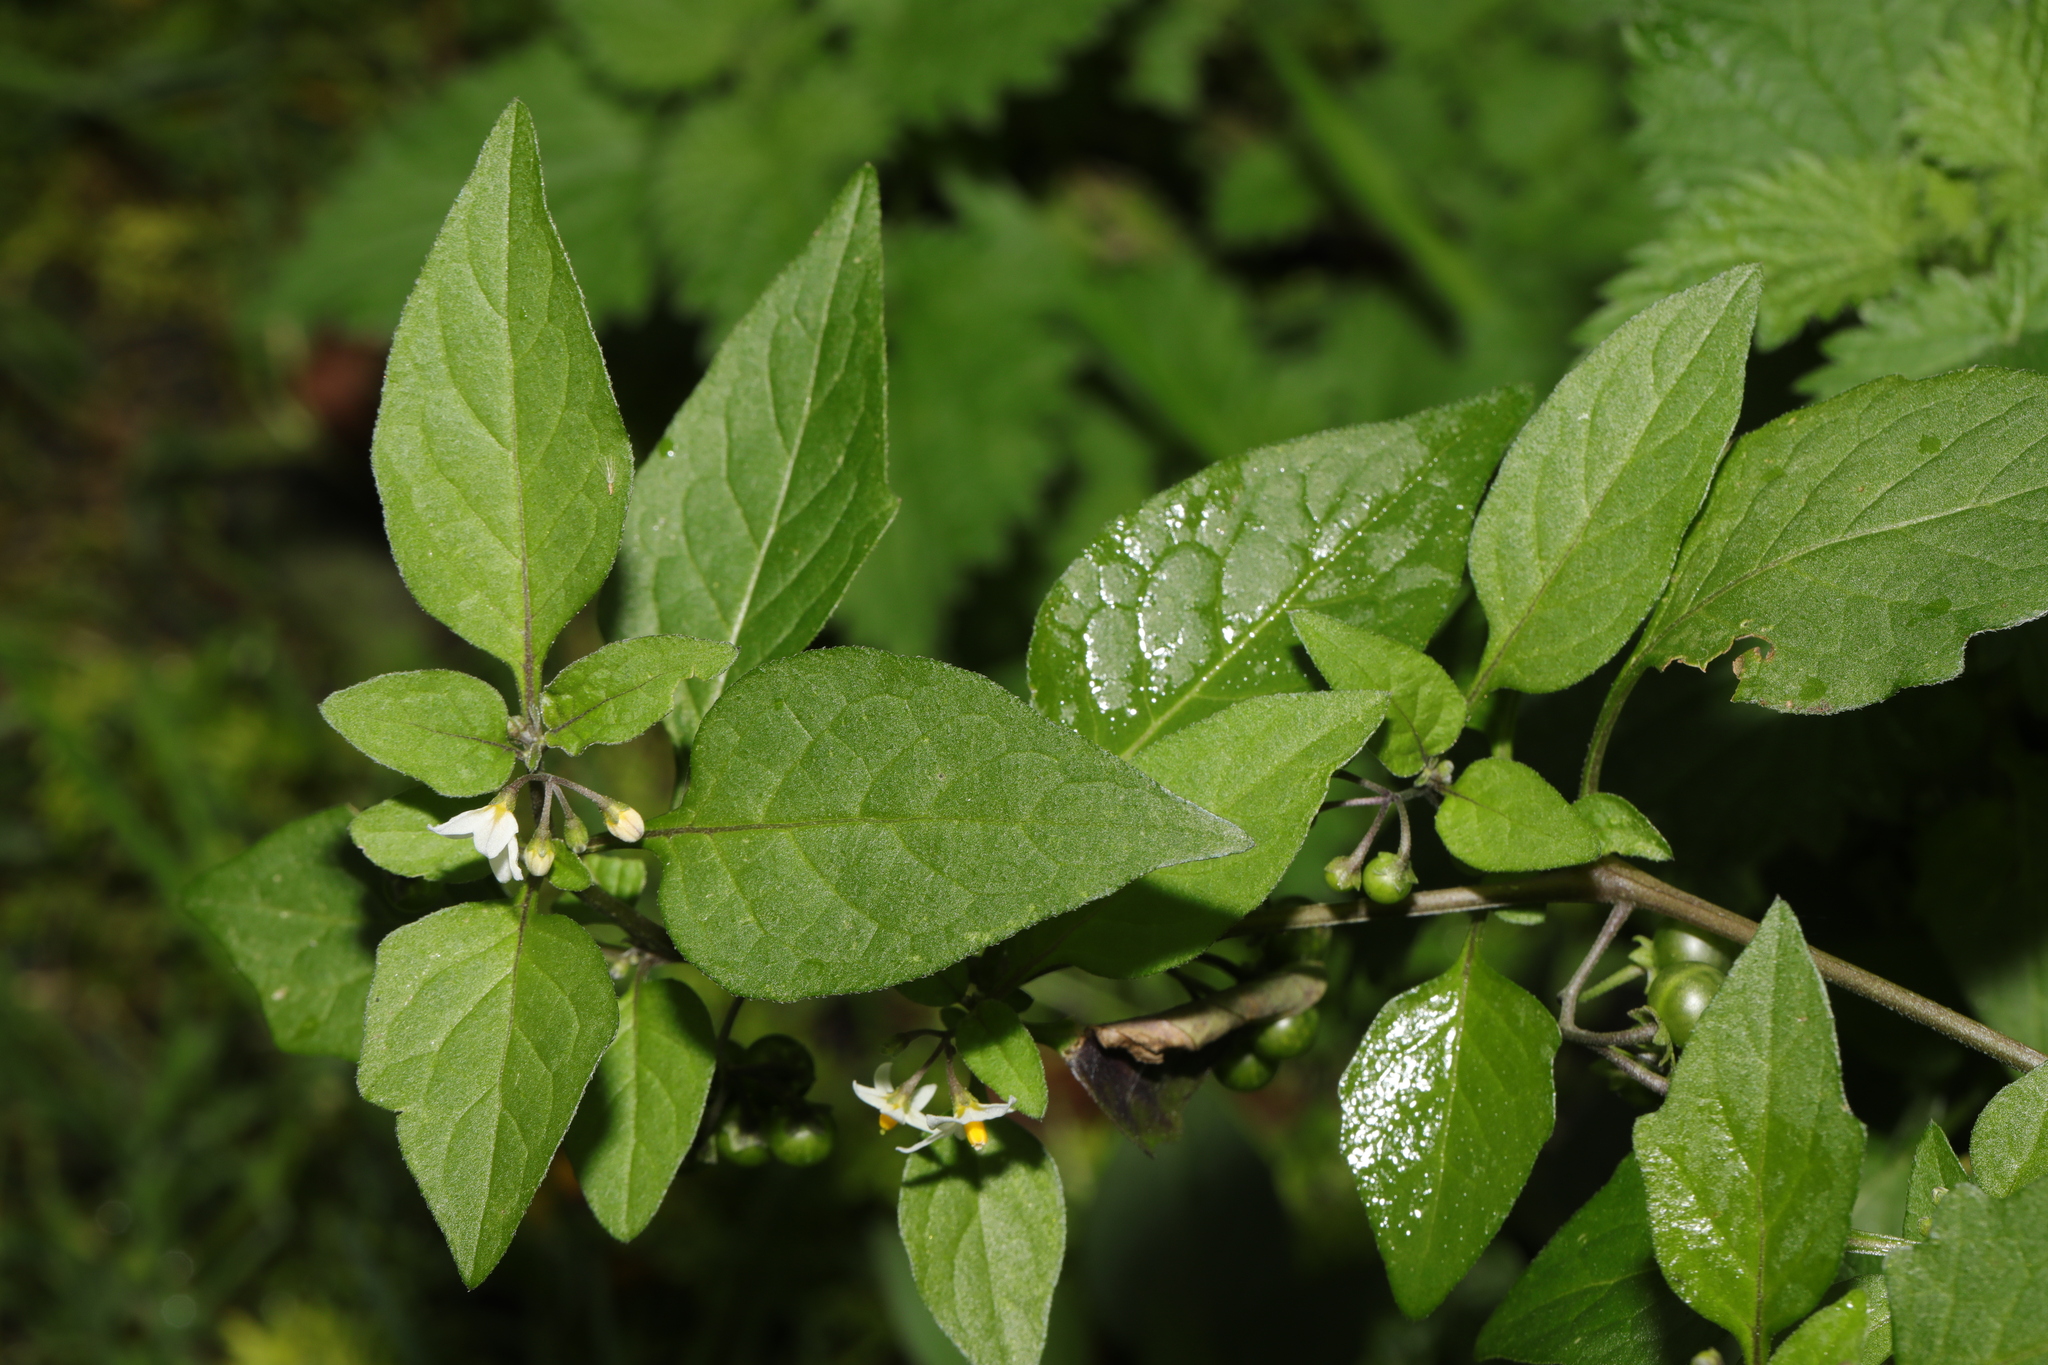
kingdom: Plantae
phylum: Tracheophyta
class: Magnoliopsida
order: Solanales
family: Solanaceae
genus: Solanum
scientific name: Solanum nigrum
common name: Black nightshade
